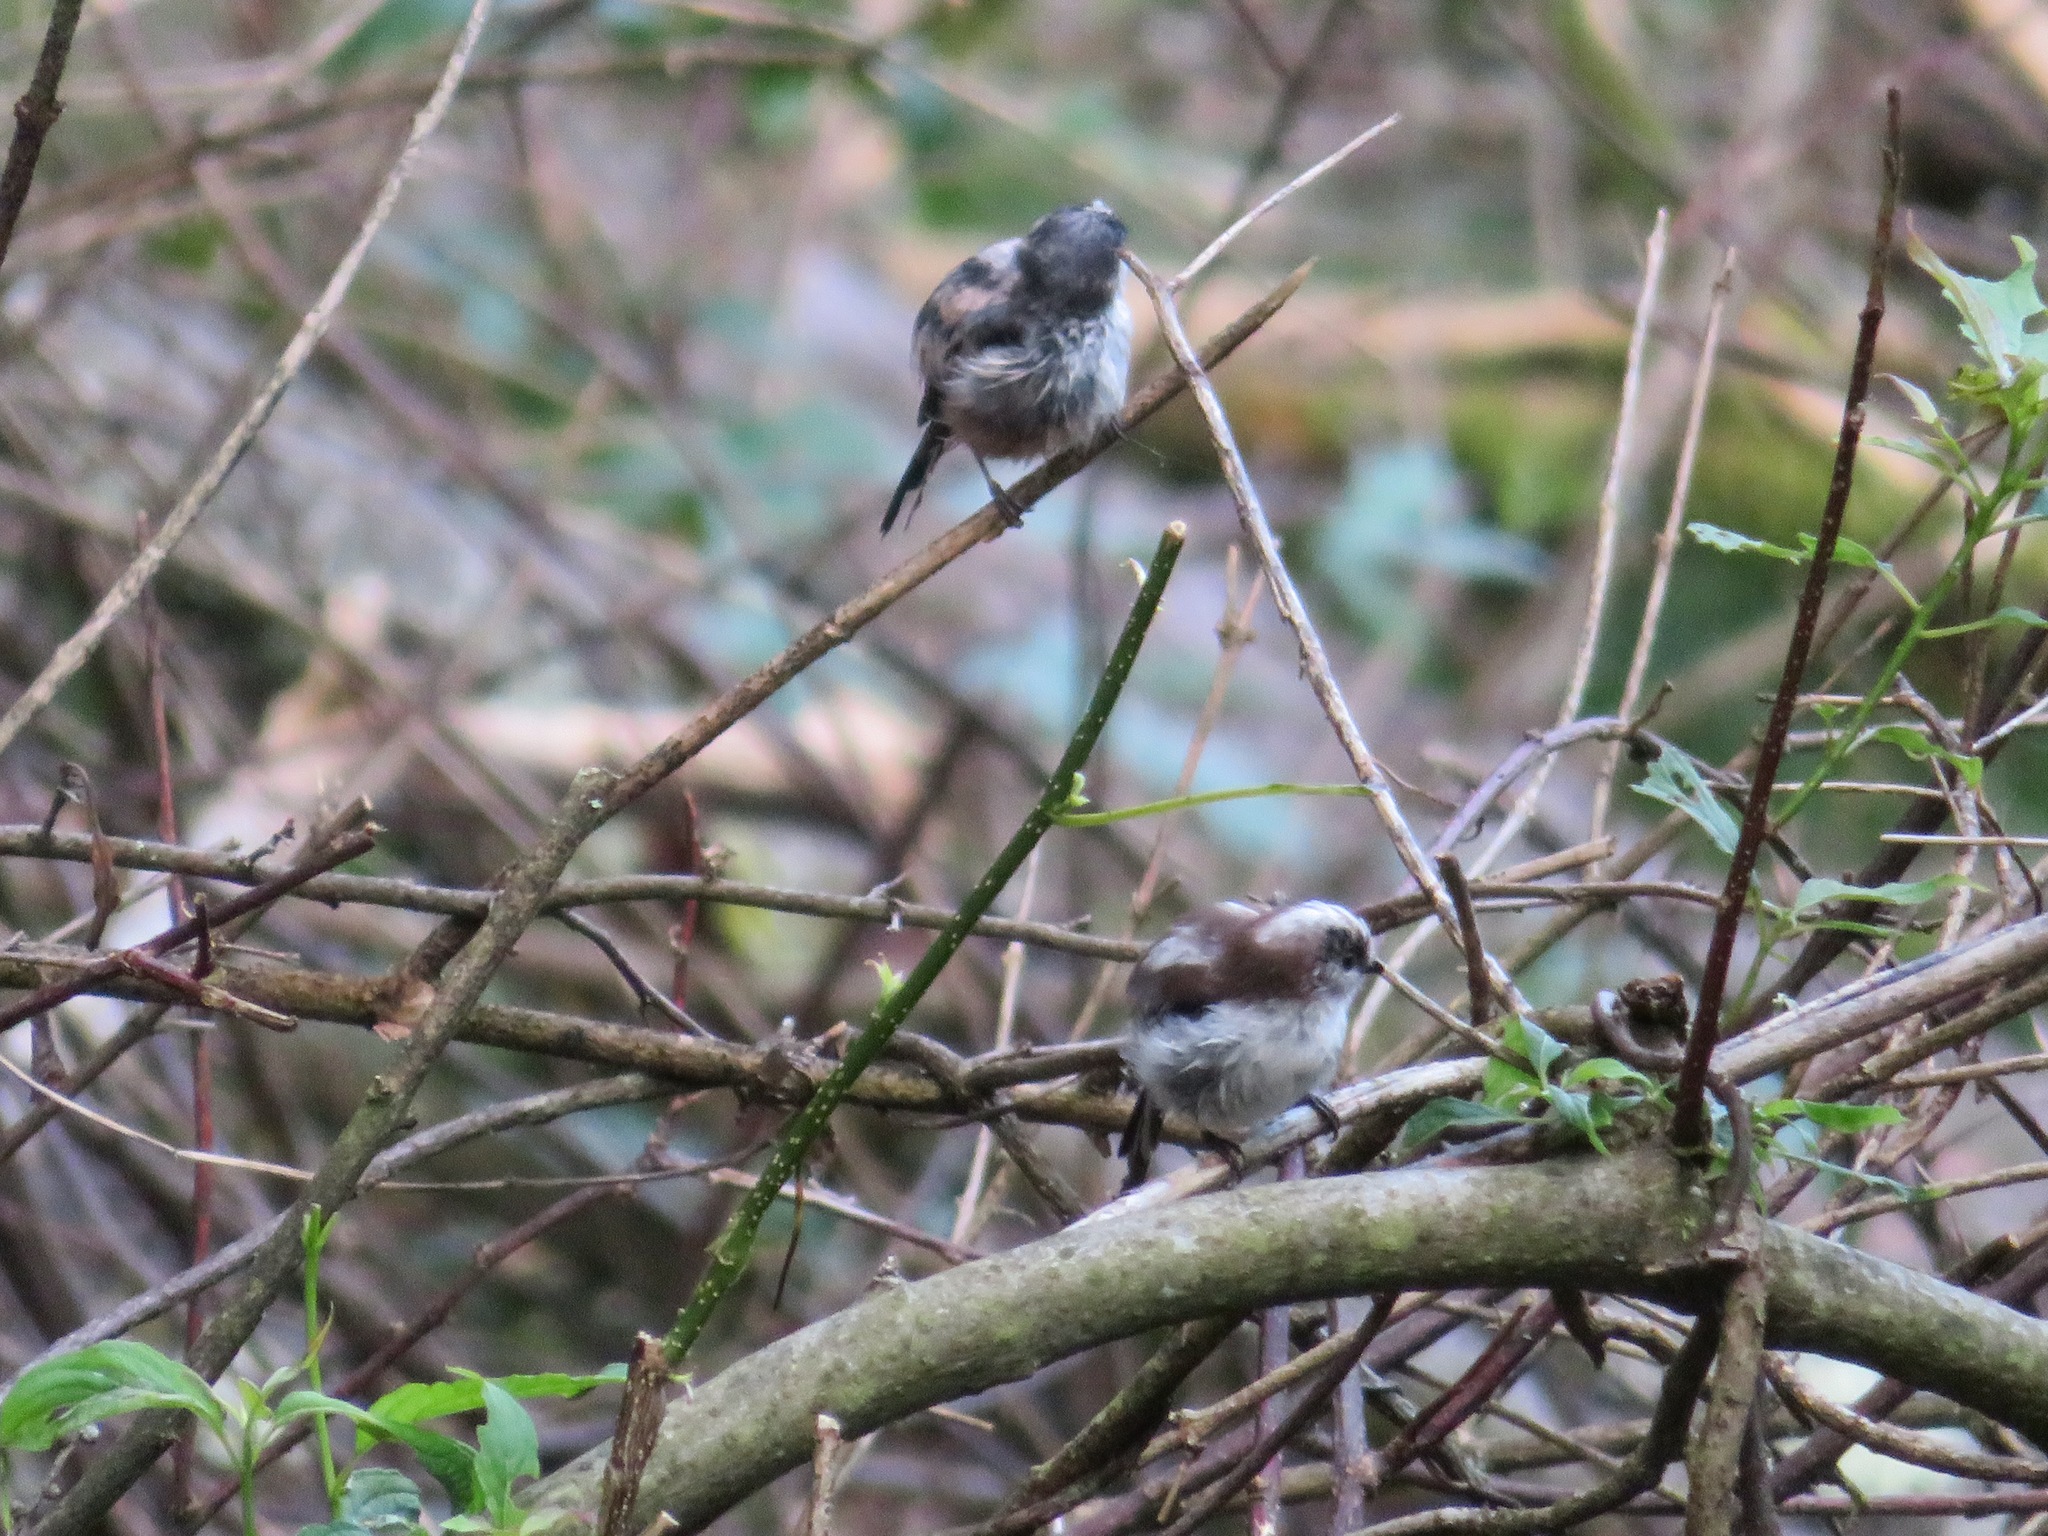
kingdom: Animalia
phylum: Chordata
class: Aves
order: Passeriformes
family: Aegithalidae
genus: Aegithalos
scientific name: Aegithalos caudatus
